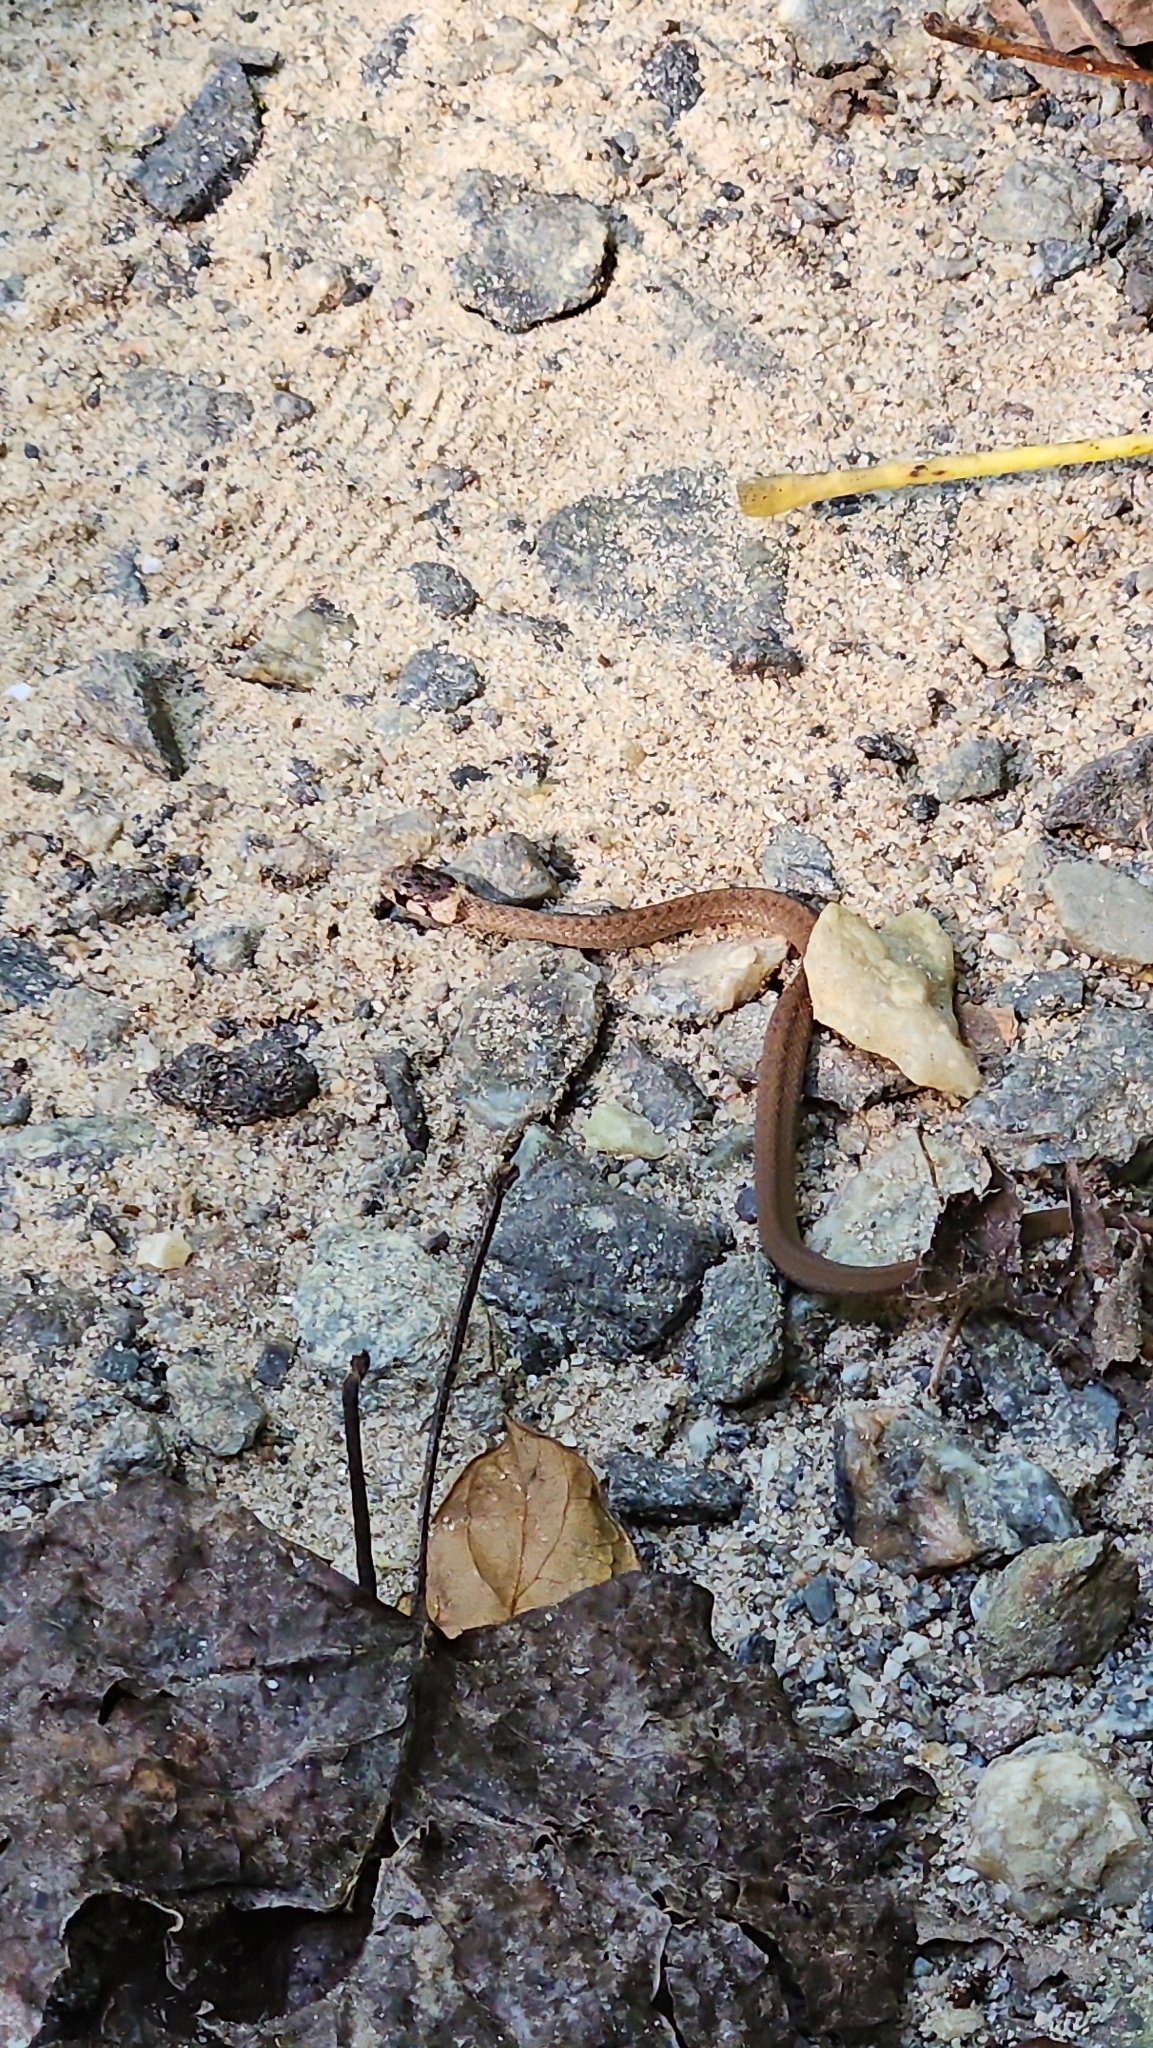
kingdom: Animalia
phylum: Chordata
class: Squamata
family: Colubridae
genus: Storeria
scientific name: Storeria dekayi
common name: (dekay’s) brown snake
